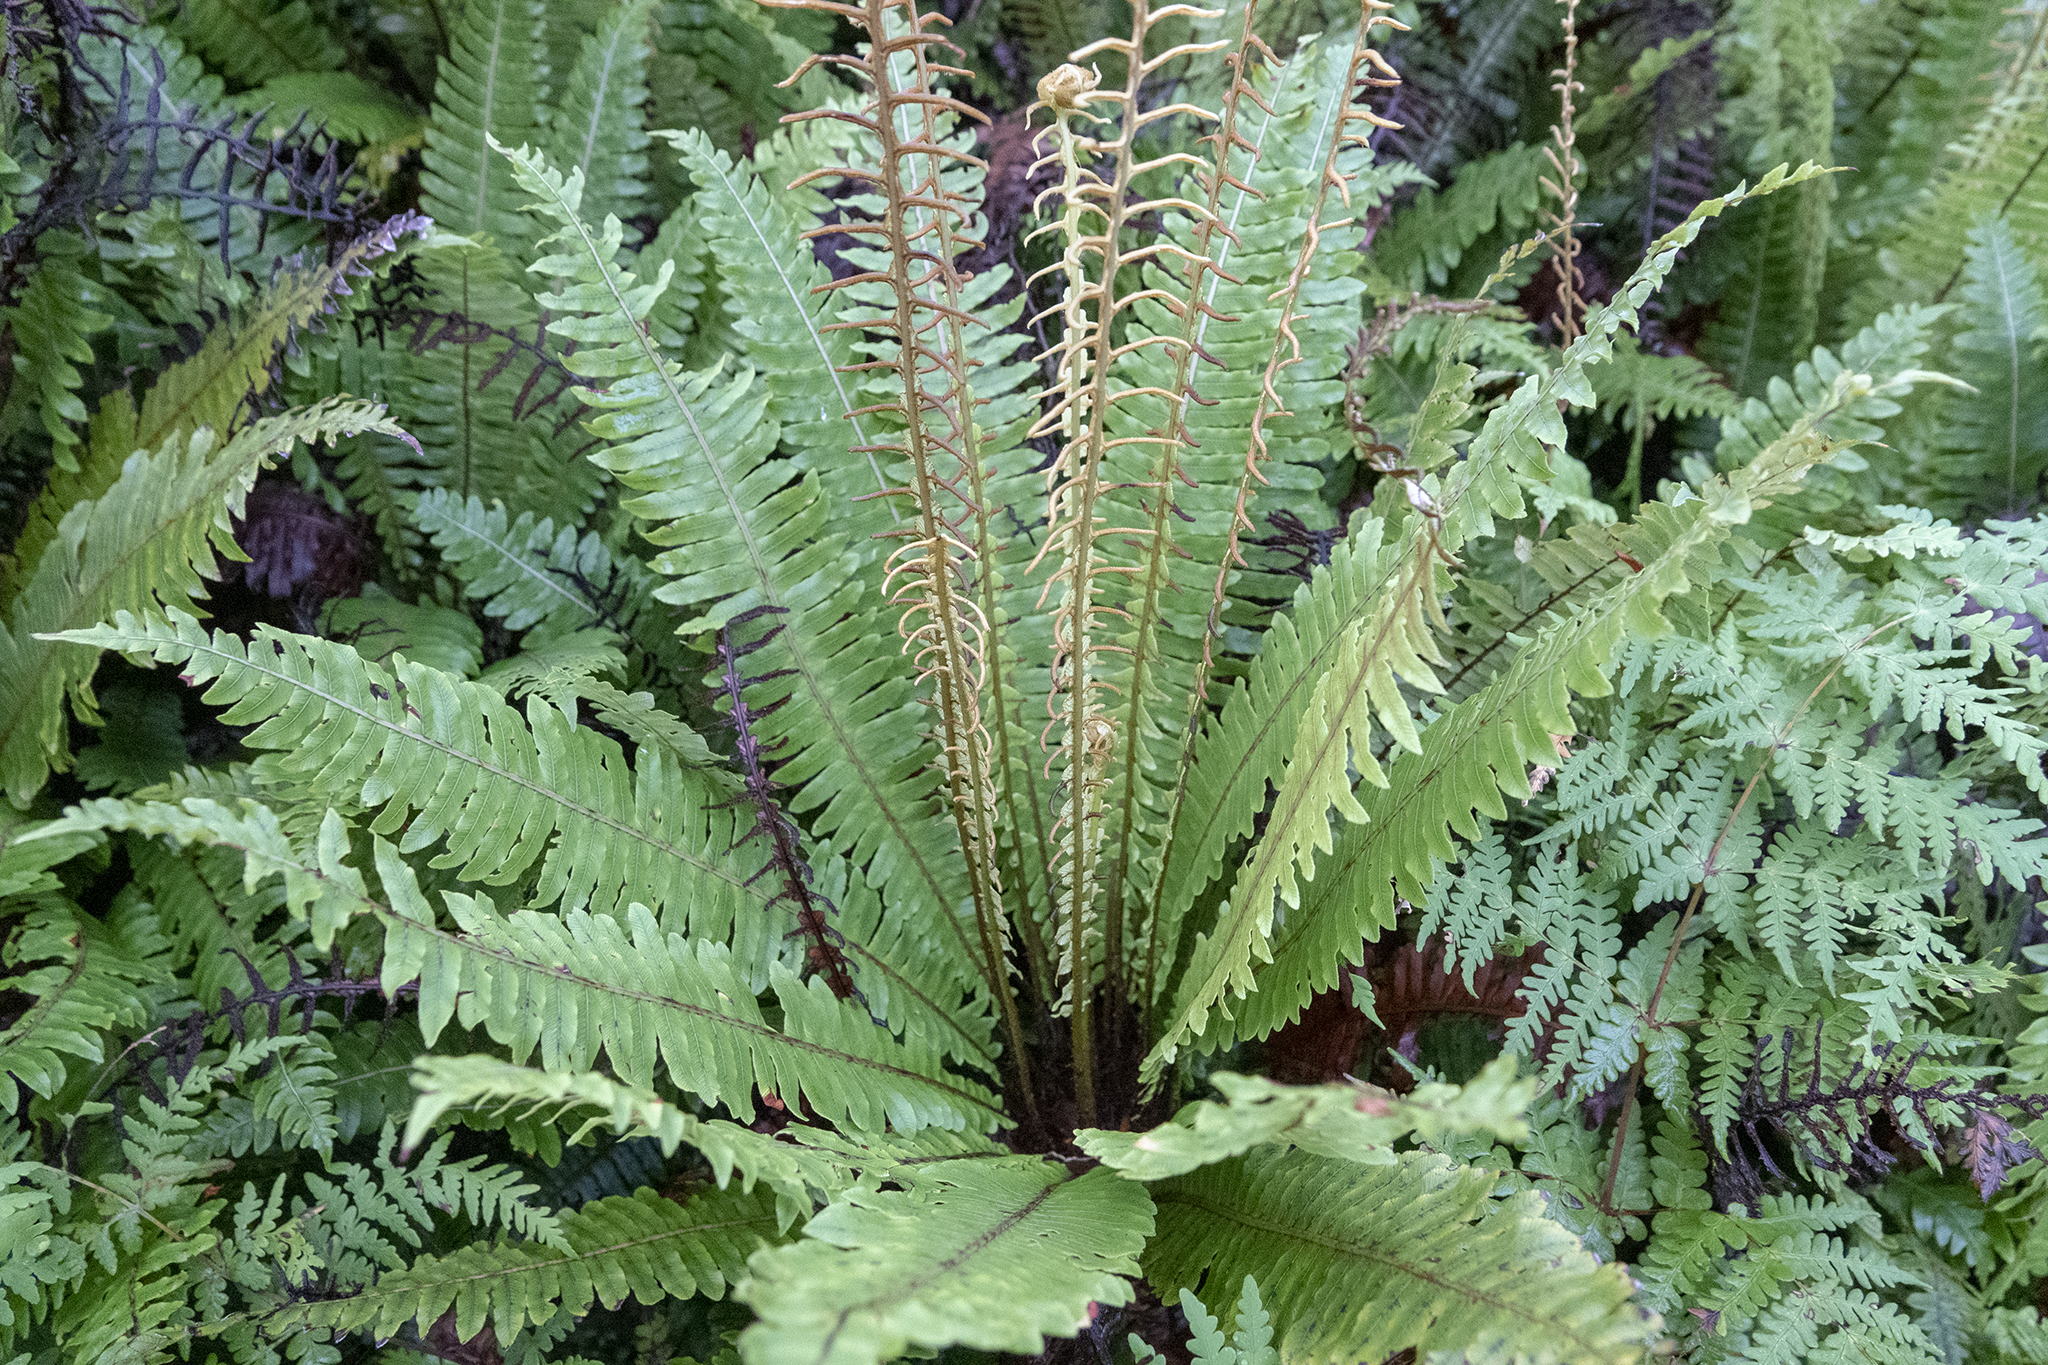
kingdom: Plantae
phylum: Tracheophyta
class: Polypodiopsida
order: Polypodiales
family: Blechnaceae
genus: Lomaria
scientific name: Lomaria discolor
